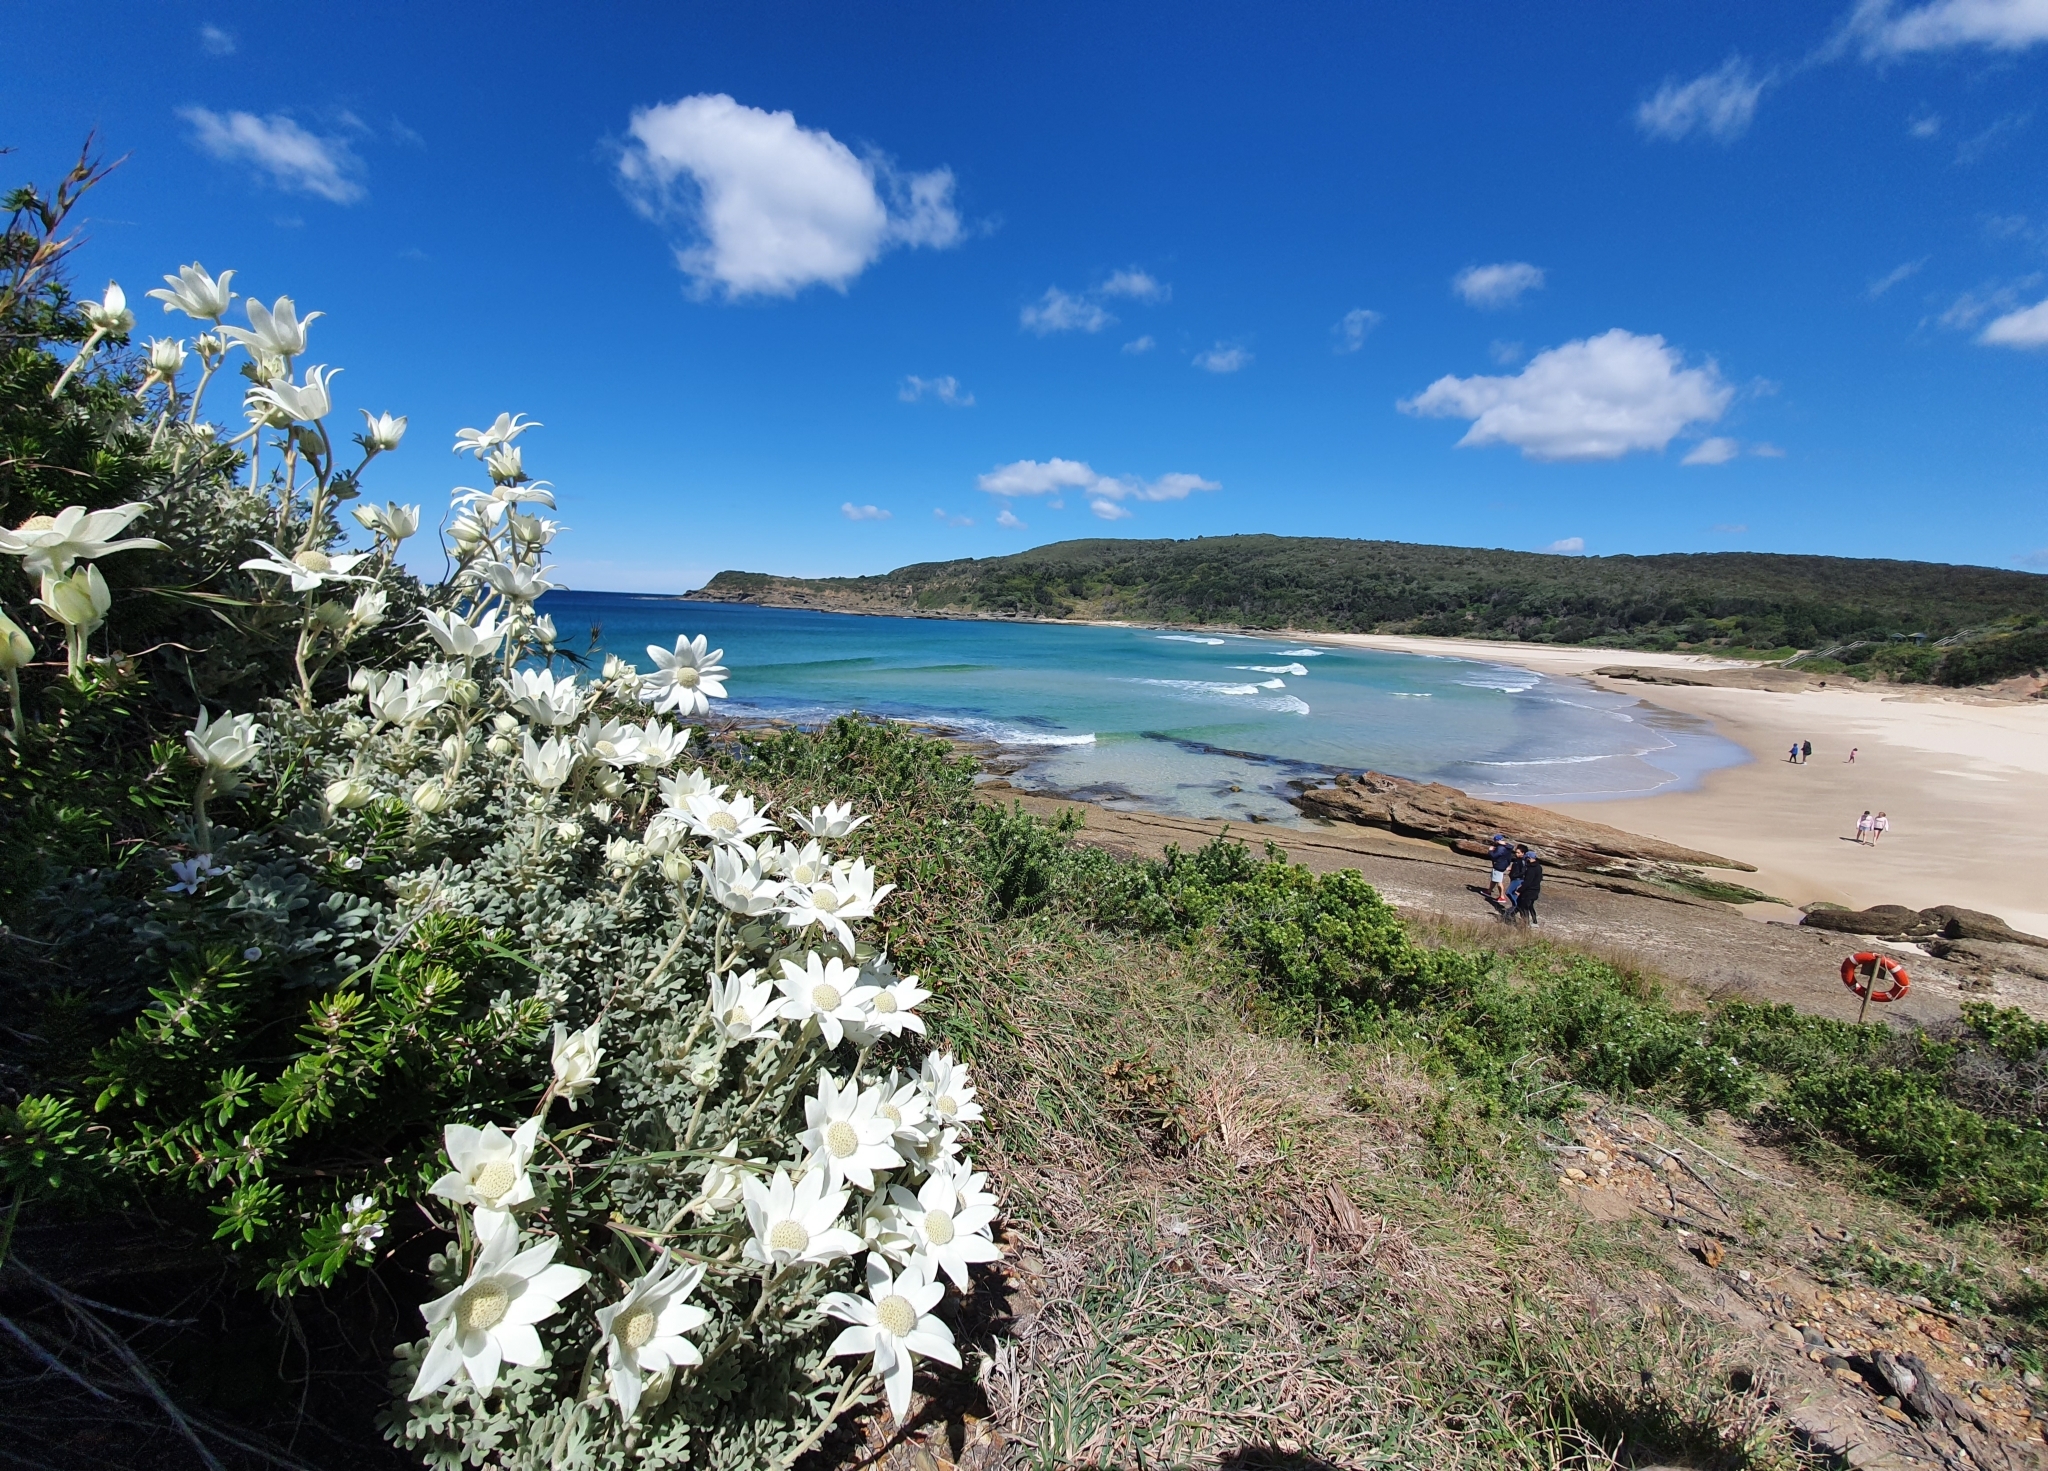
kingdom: Plantae
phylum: Tracheophyta
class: Magnoliopsida
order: Apiales
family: Apiaceae
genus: Actinotus
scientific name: Actinotus helianthi
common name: Flannel-flower
